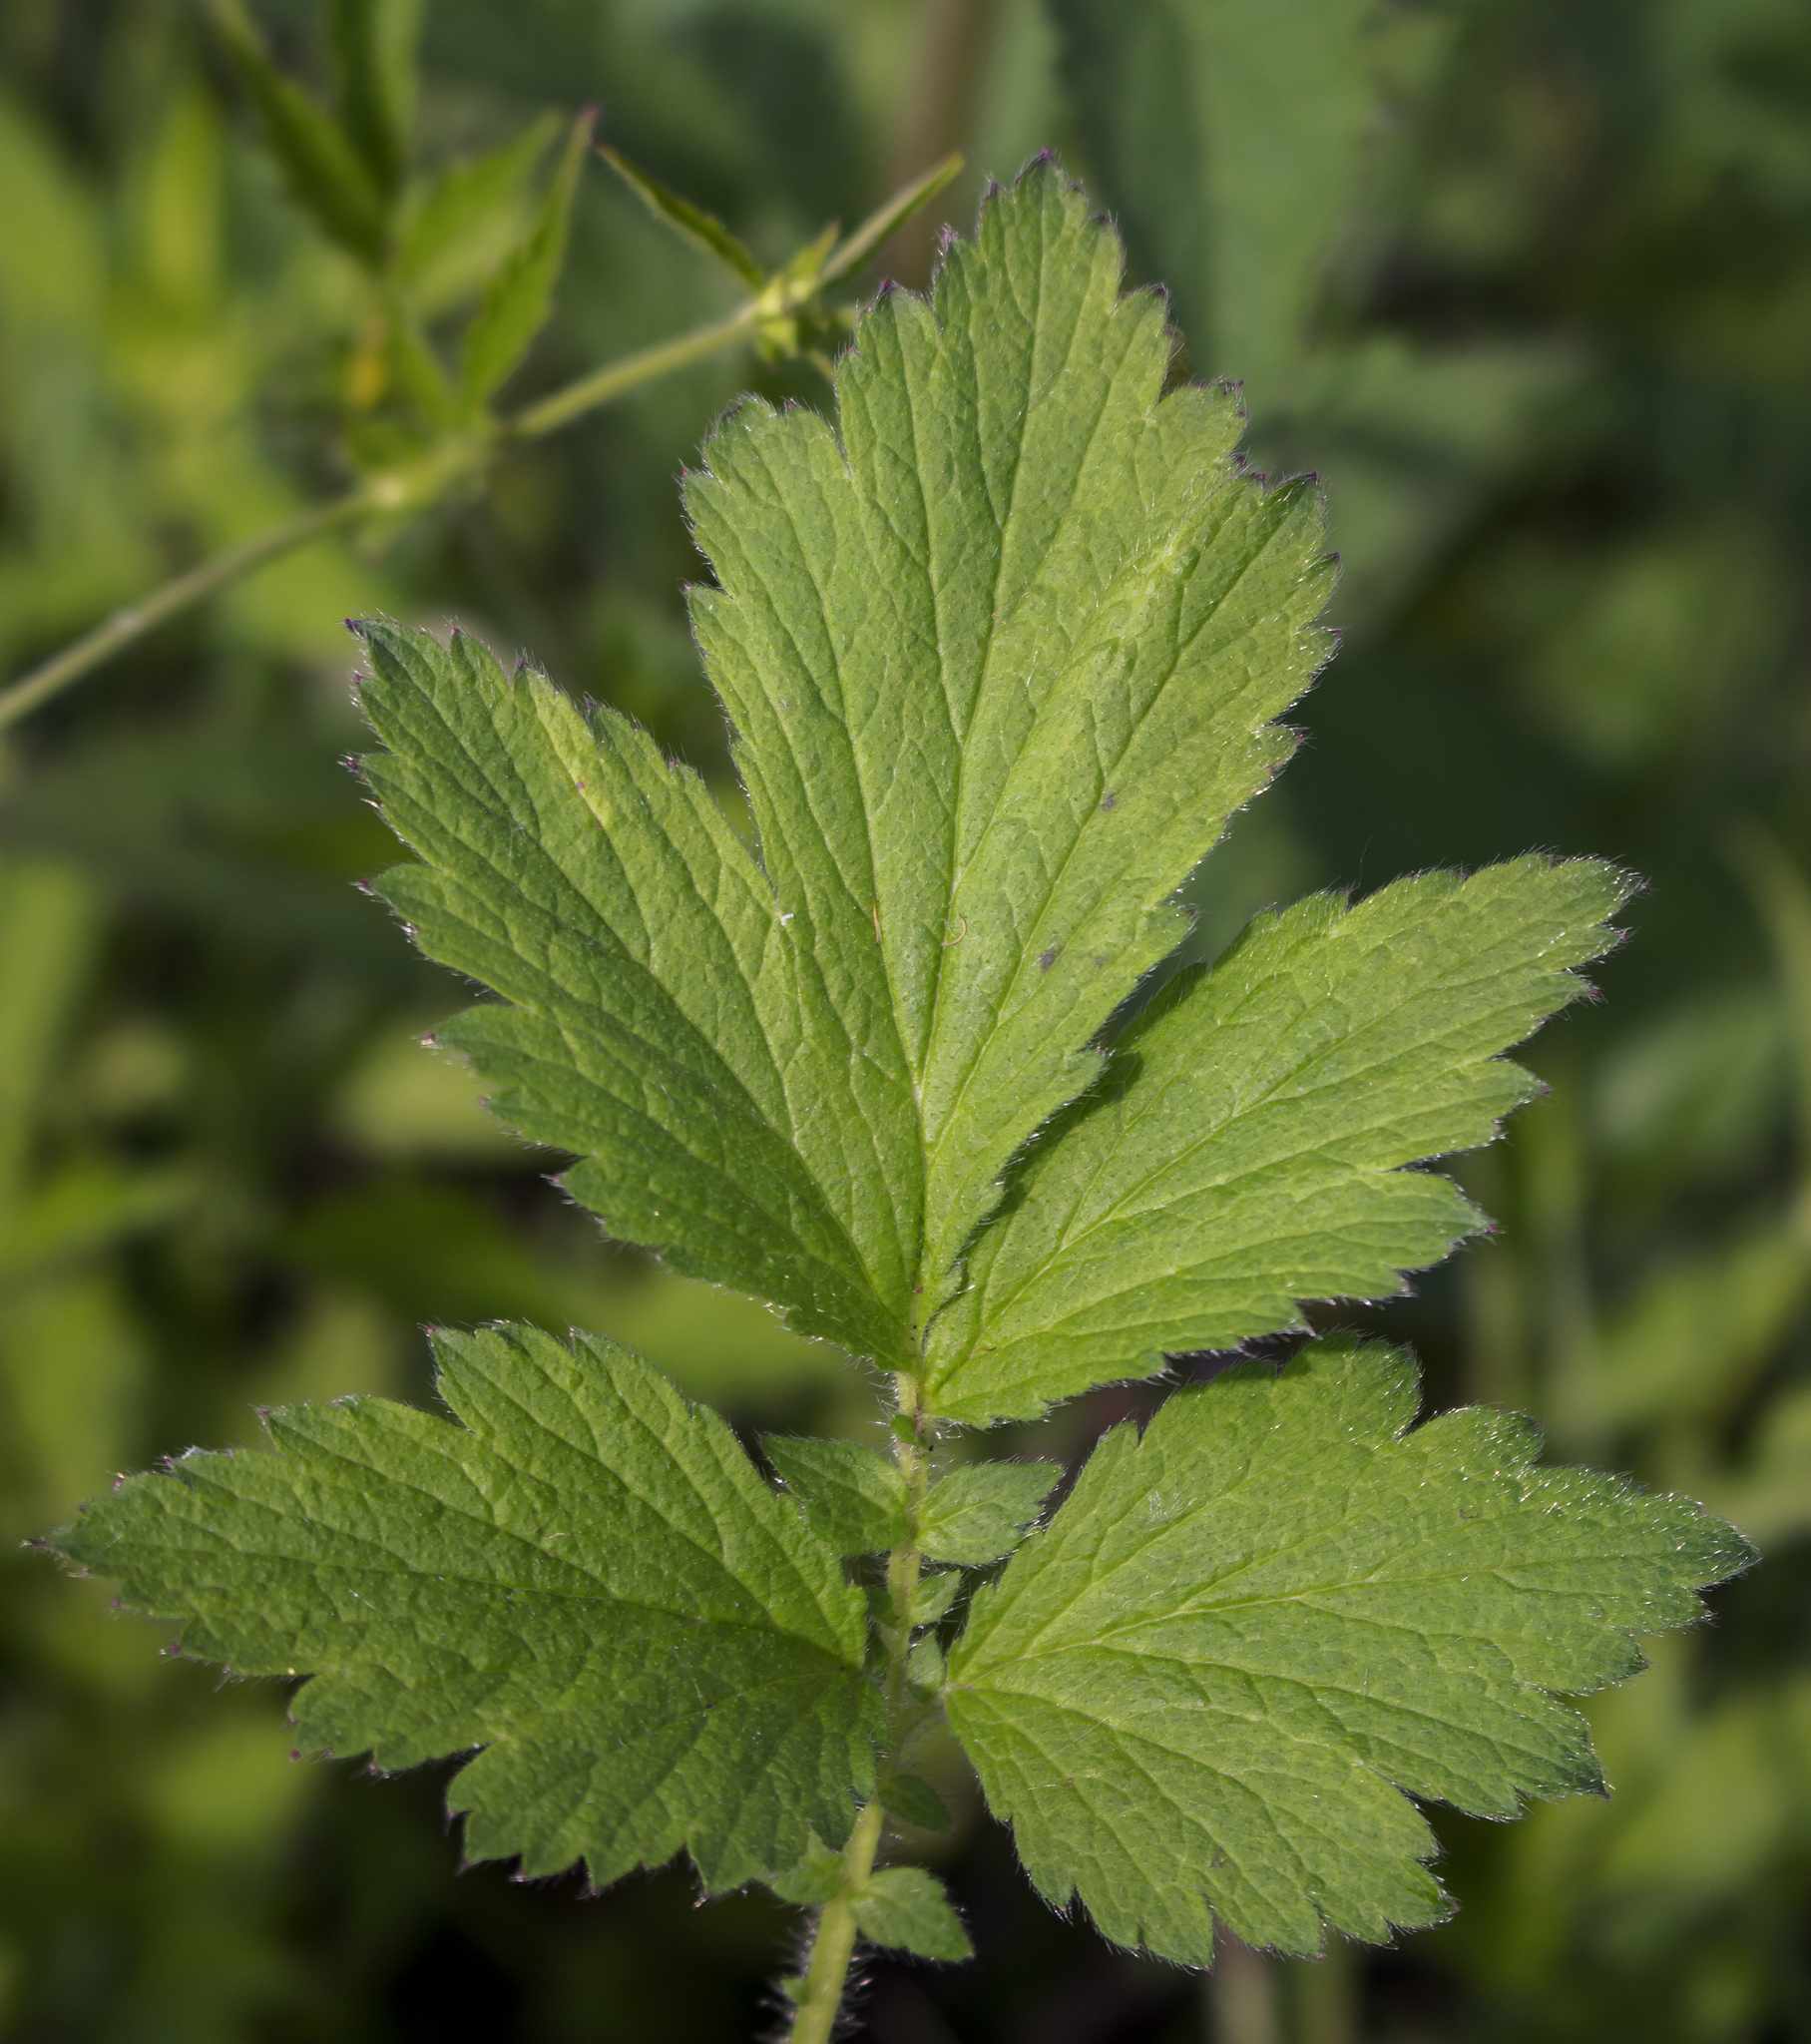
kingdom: Plantae
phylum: Tracheophyta
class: Magnoliopsida
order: Rosales
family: Rosaceae
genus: Geum
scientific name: Geum aleppicum
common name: Yellow avens
